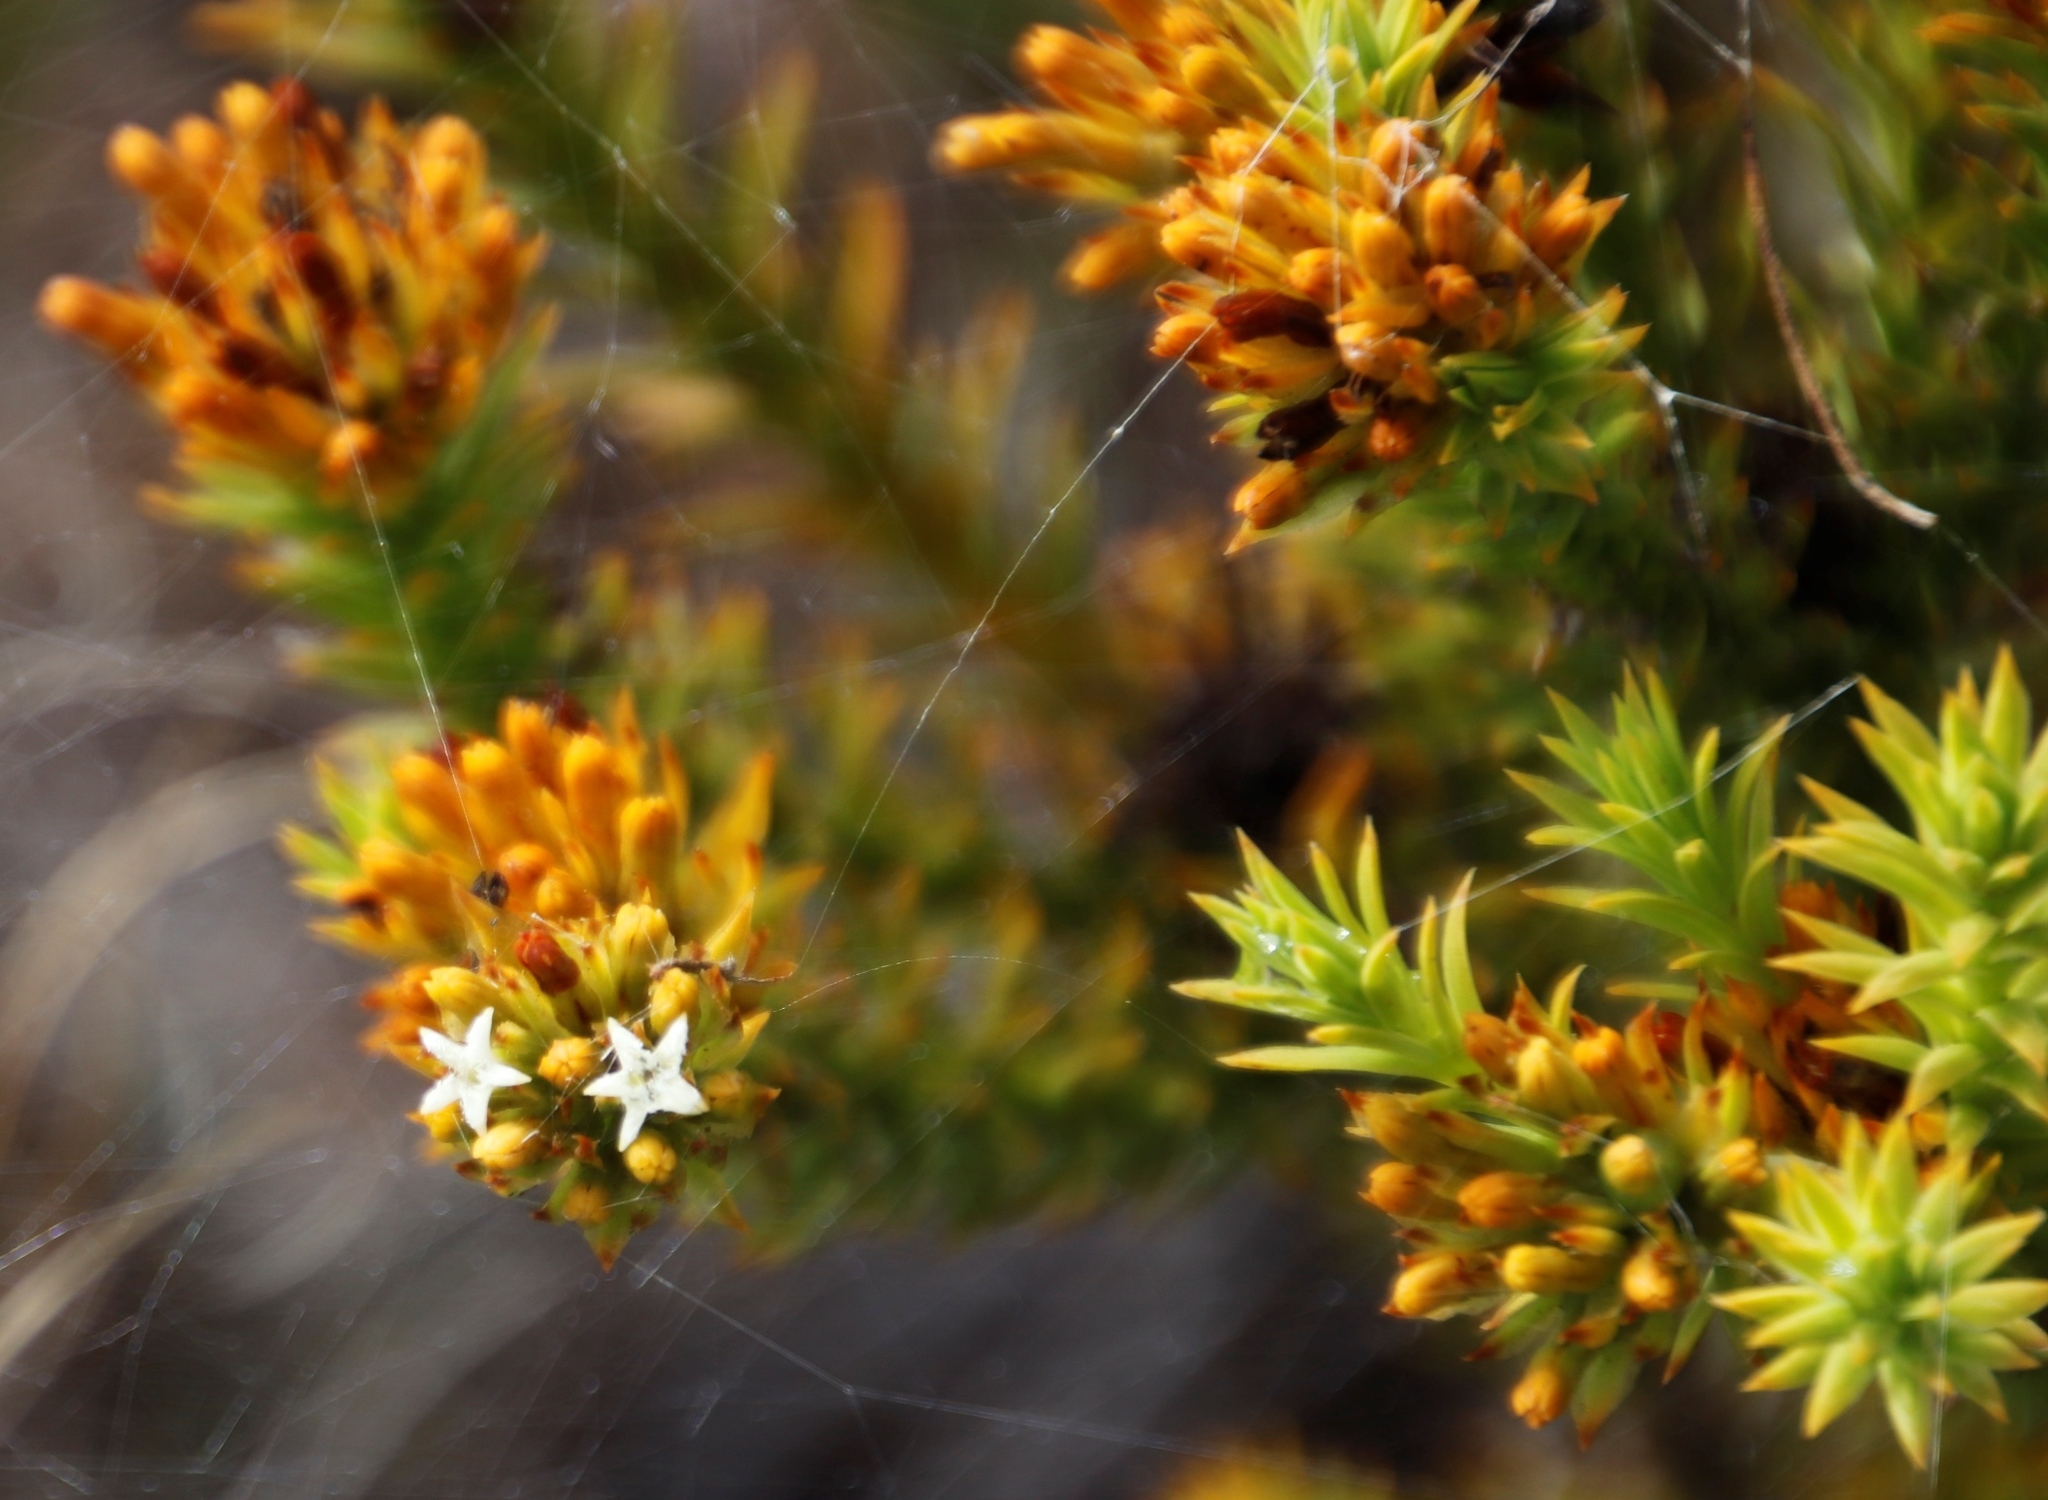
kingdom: Plantae
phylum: Tracheophyta
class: Magnoliopsida
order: Santalales
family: Thesiaceae
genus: Thesium
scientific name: Thesium viridifolium
